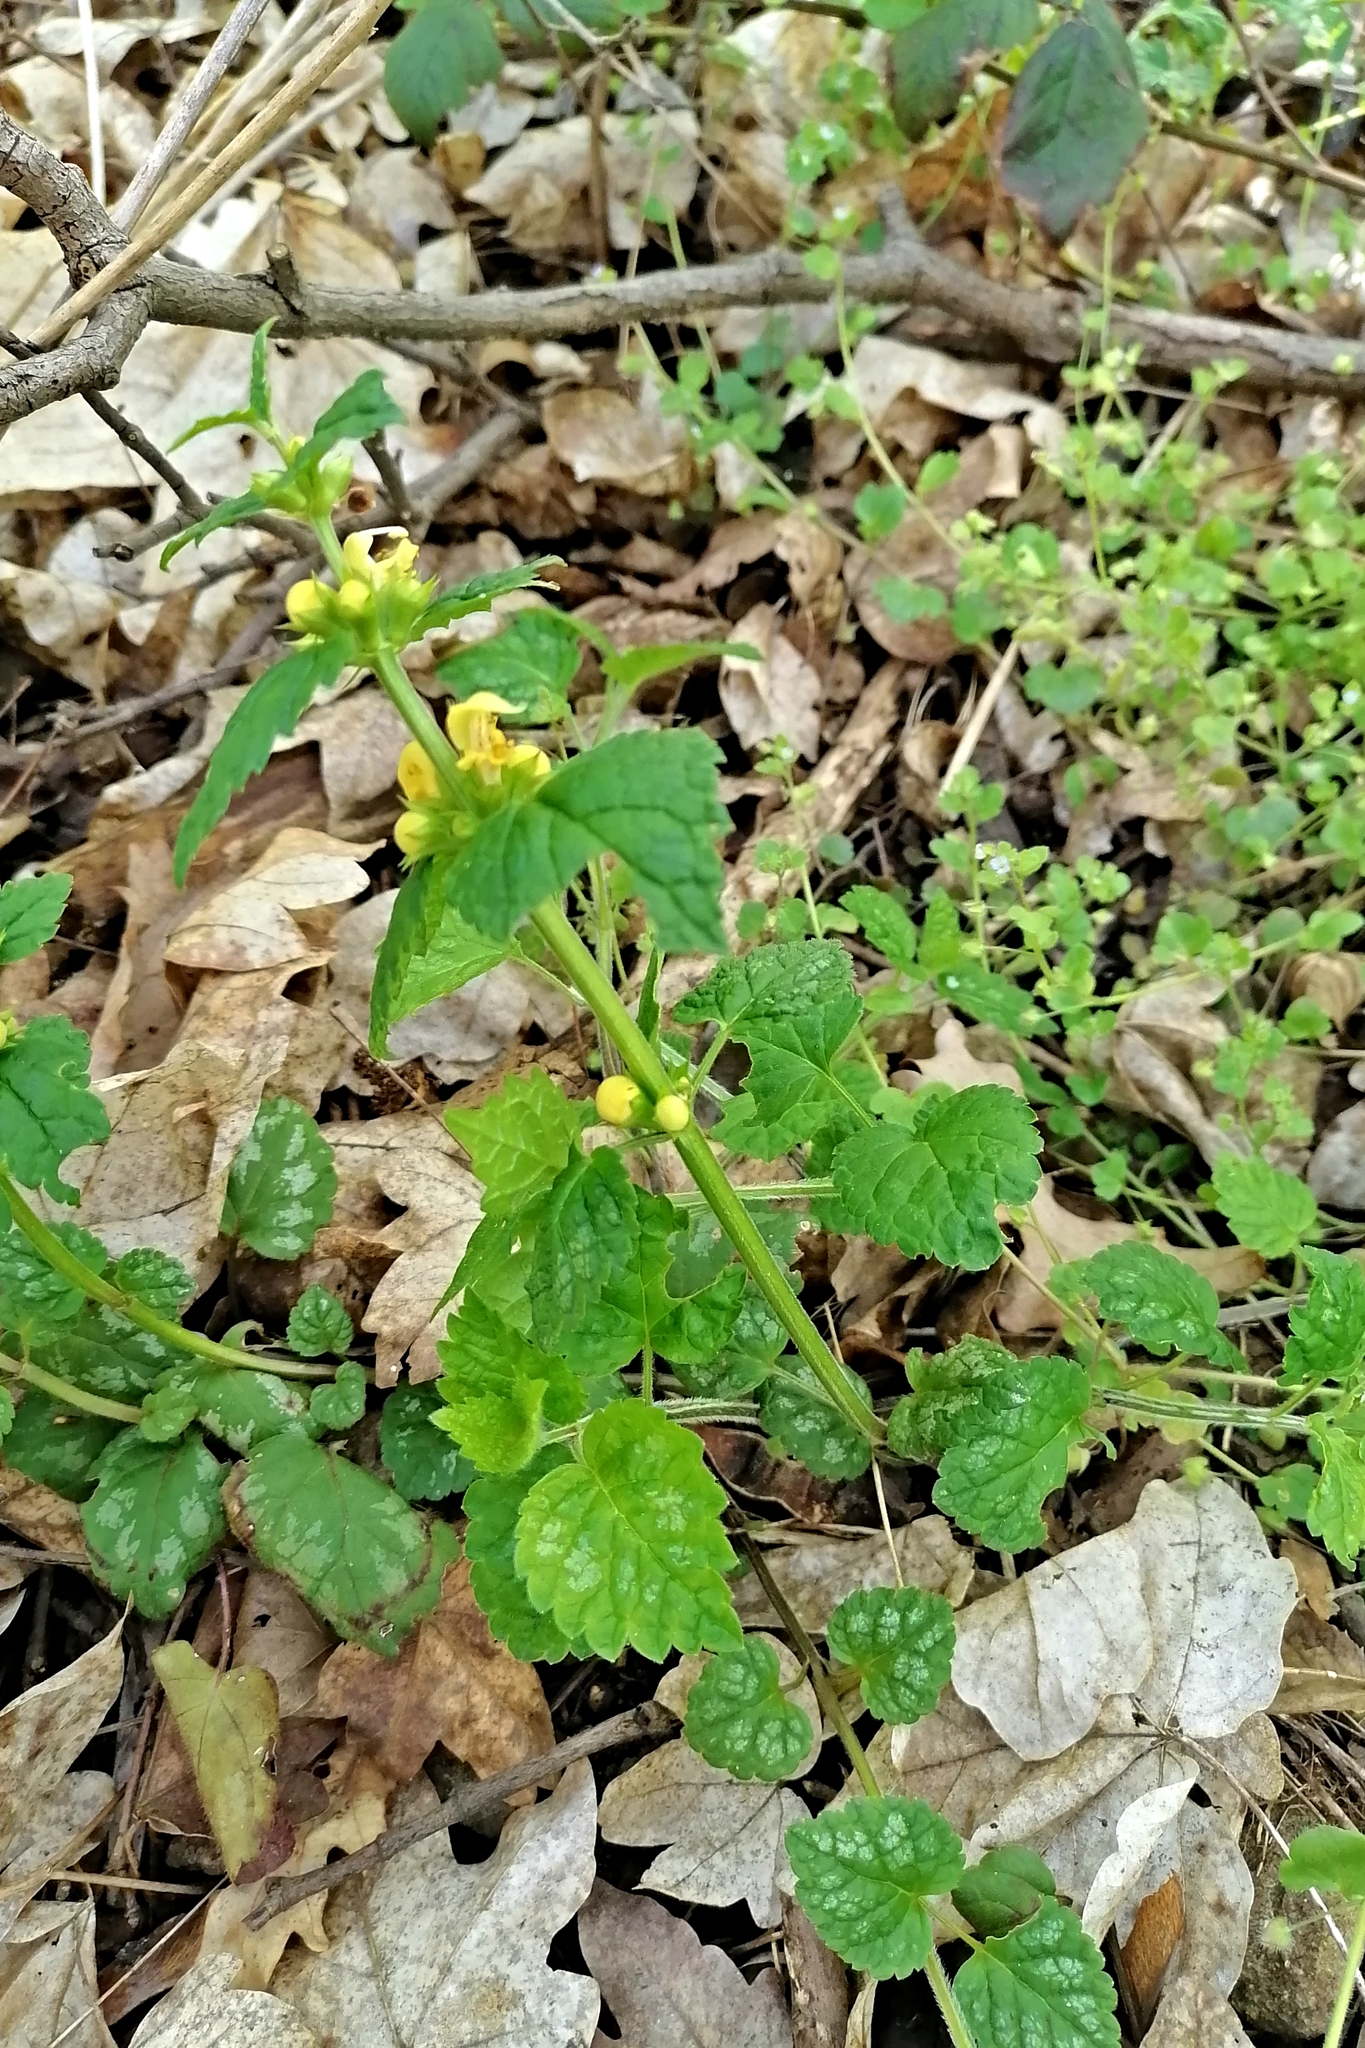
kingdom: Plantae
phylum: Tracheophyta
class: Magnoliopsida
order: Lamiales
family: Lamiaceae
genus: Lamium
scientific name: Lamium galeobdolon
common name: Yellow archangel
